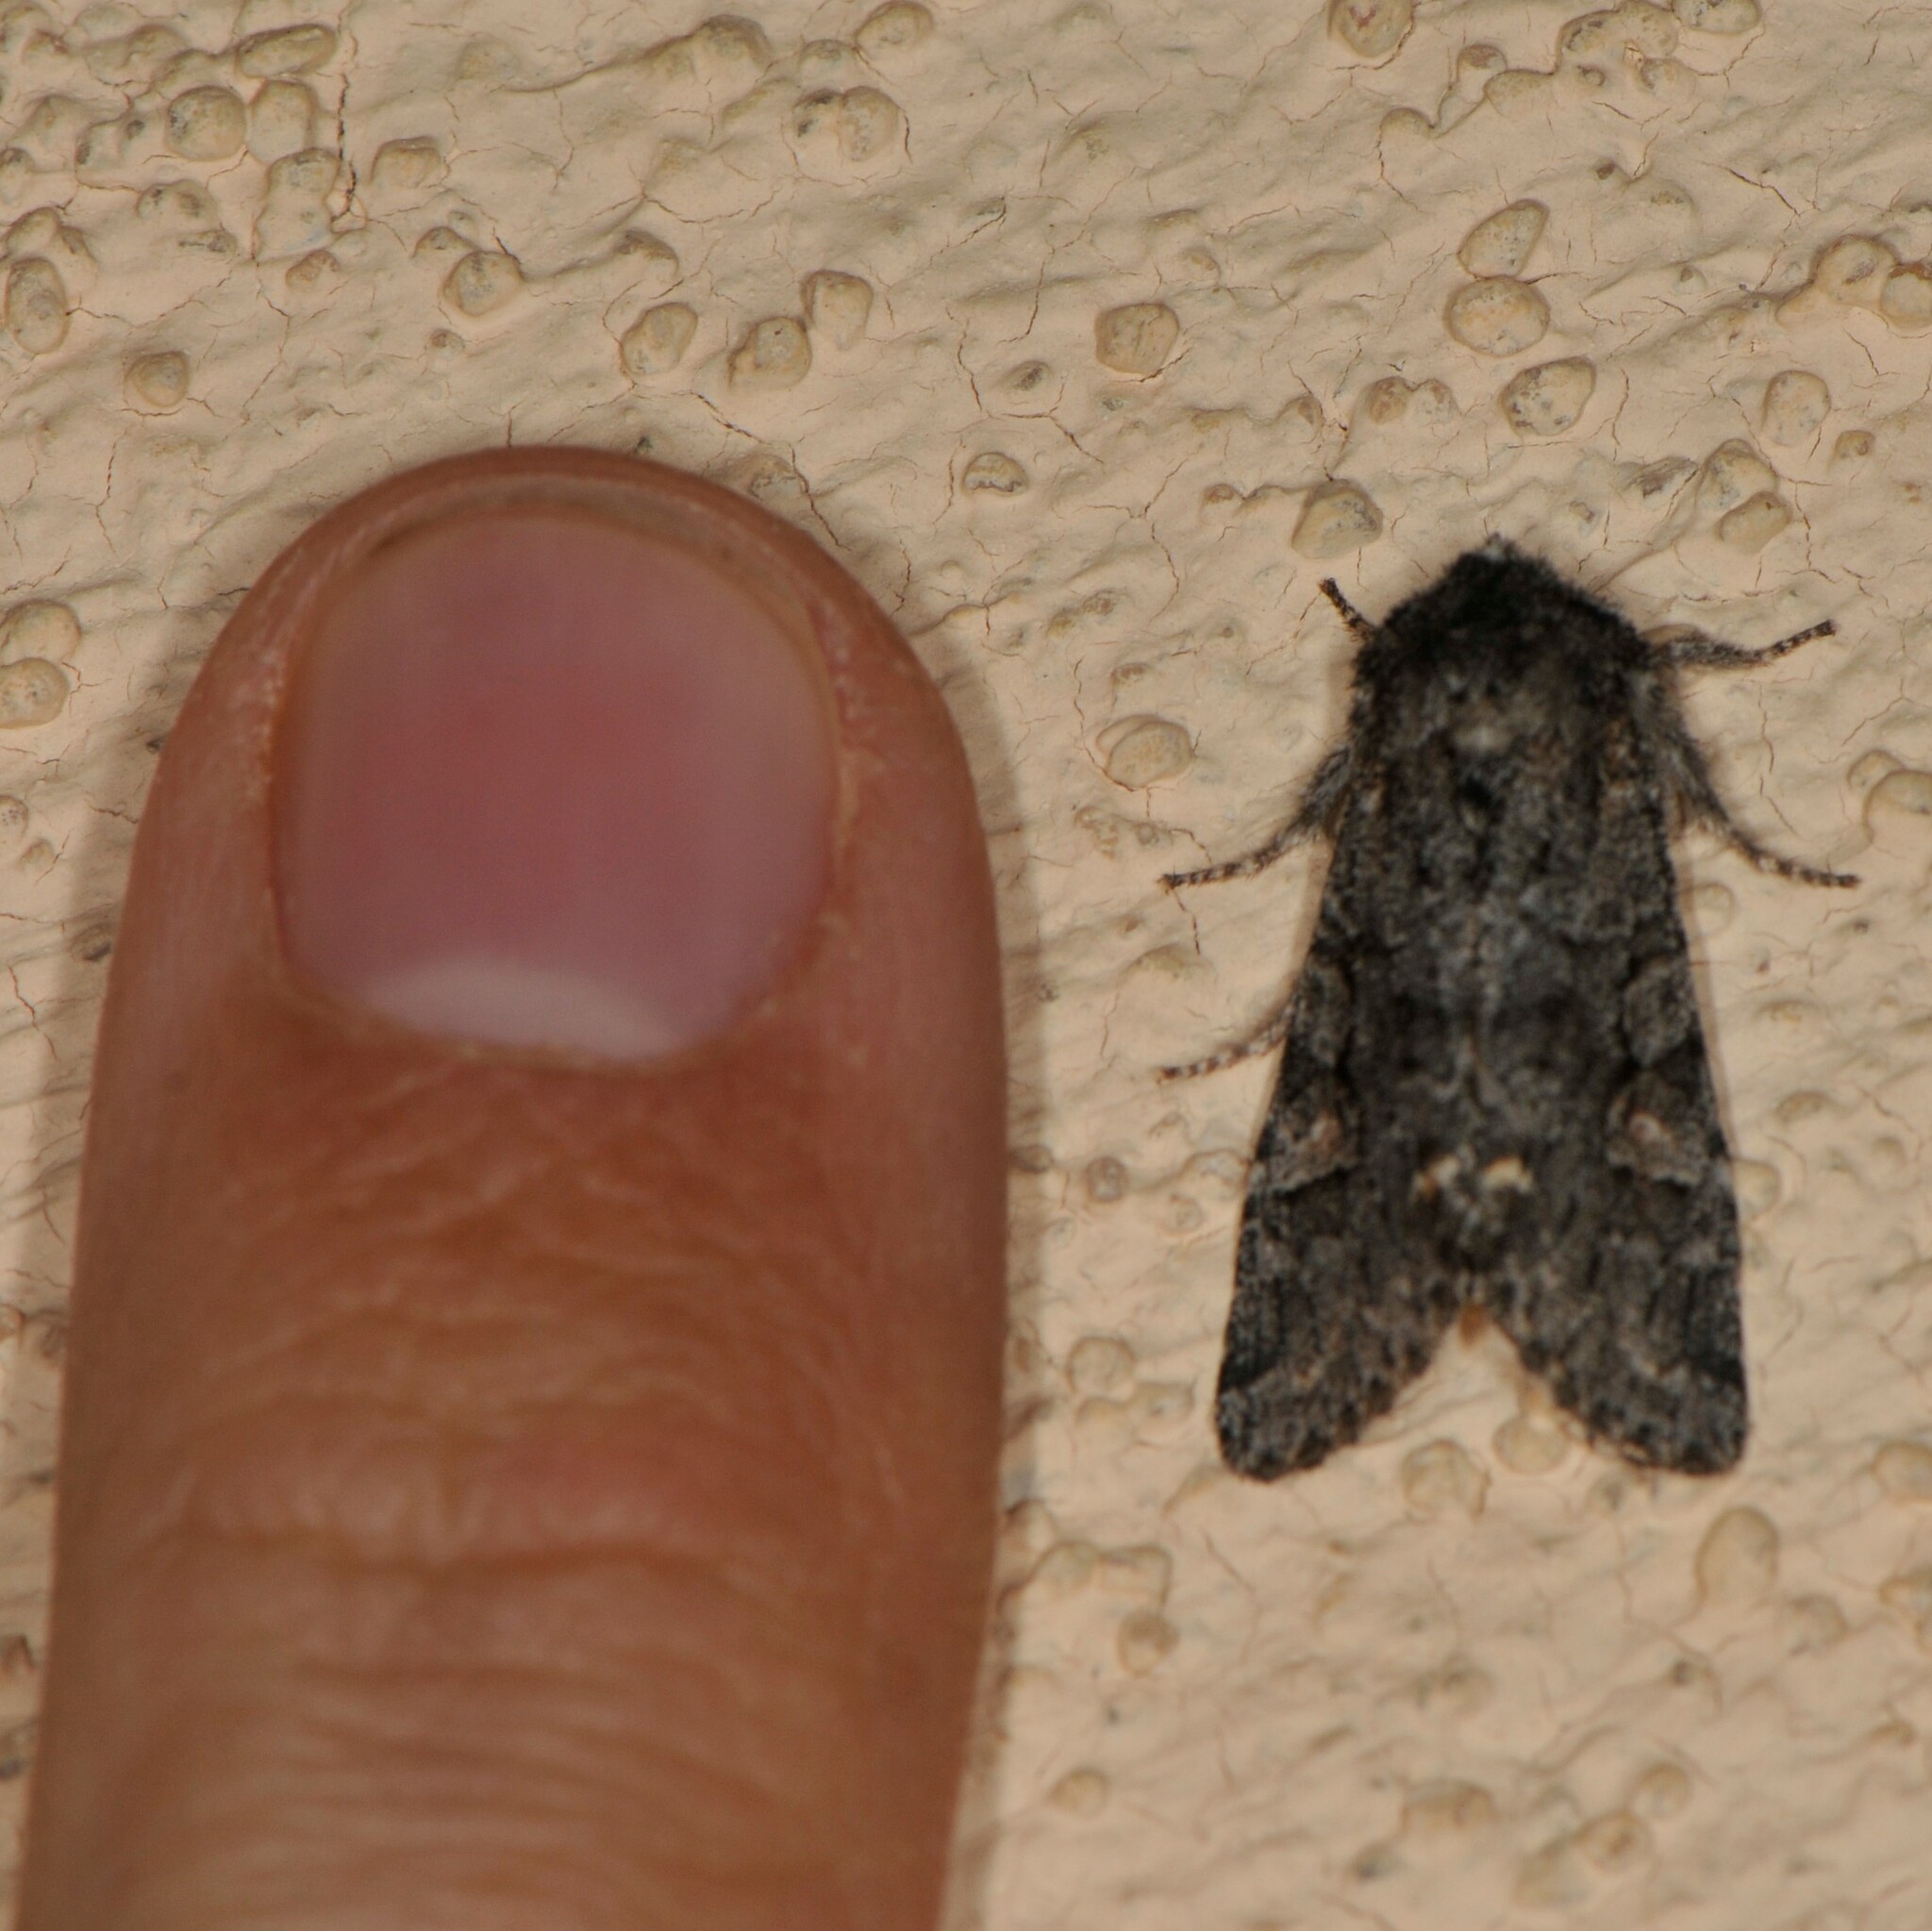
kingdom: Animalia
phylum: Arthropoda
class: Insecta
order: Lepidoptera
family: Noctuidae
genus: Egira
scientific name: Egira variabilis
